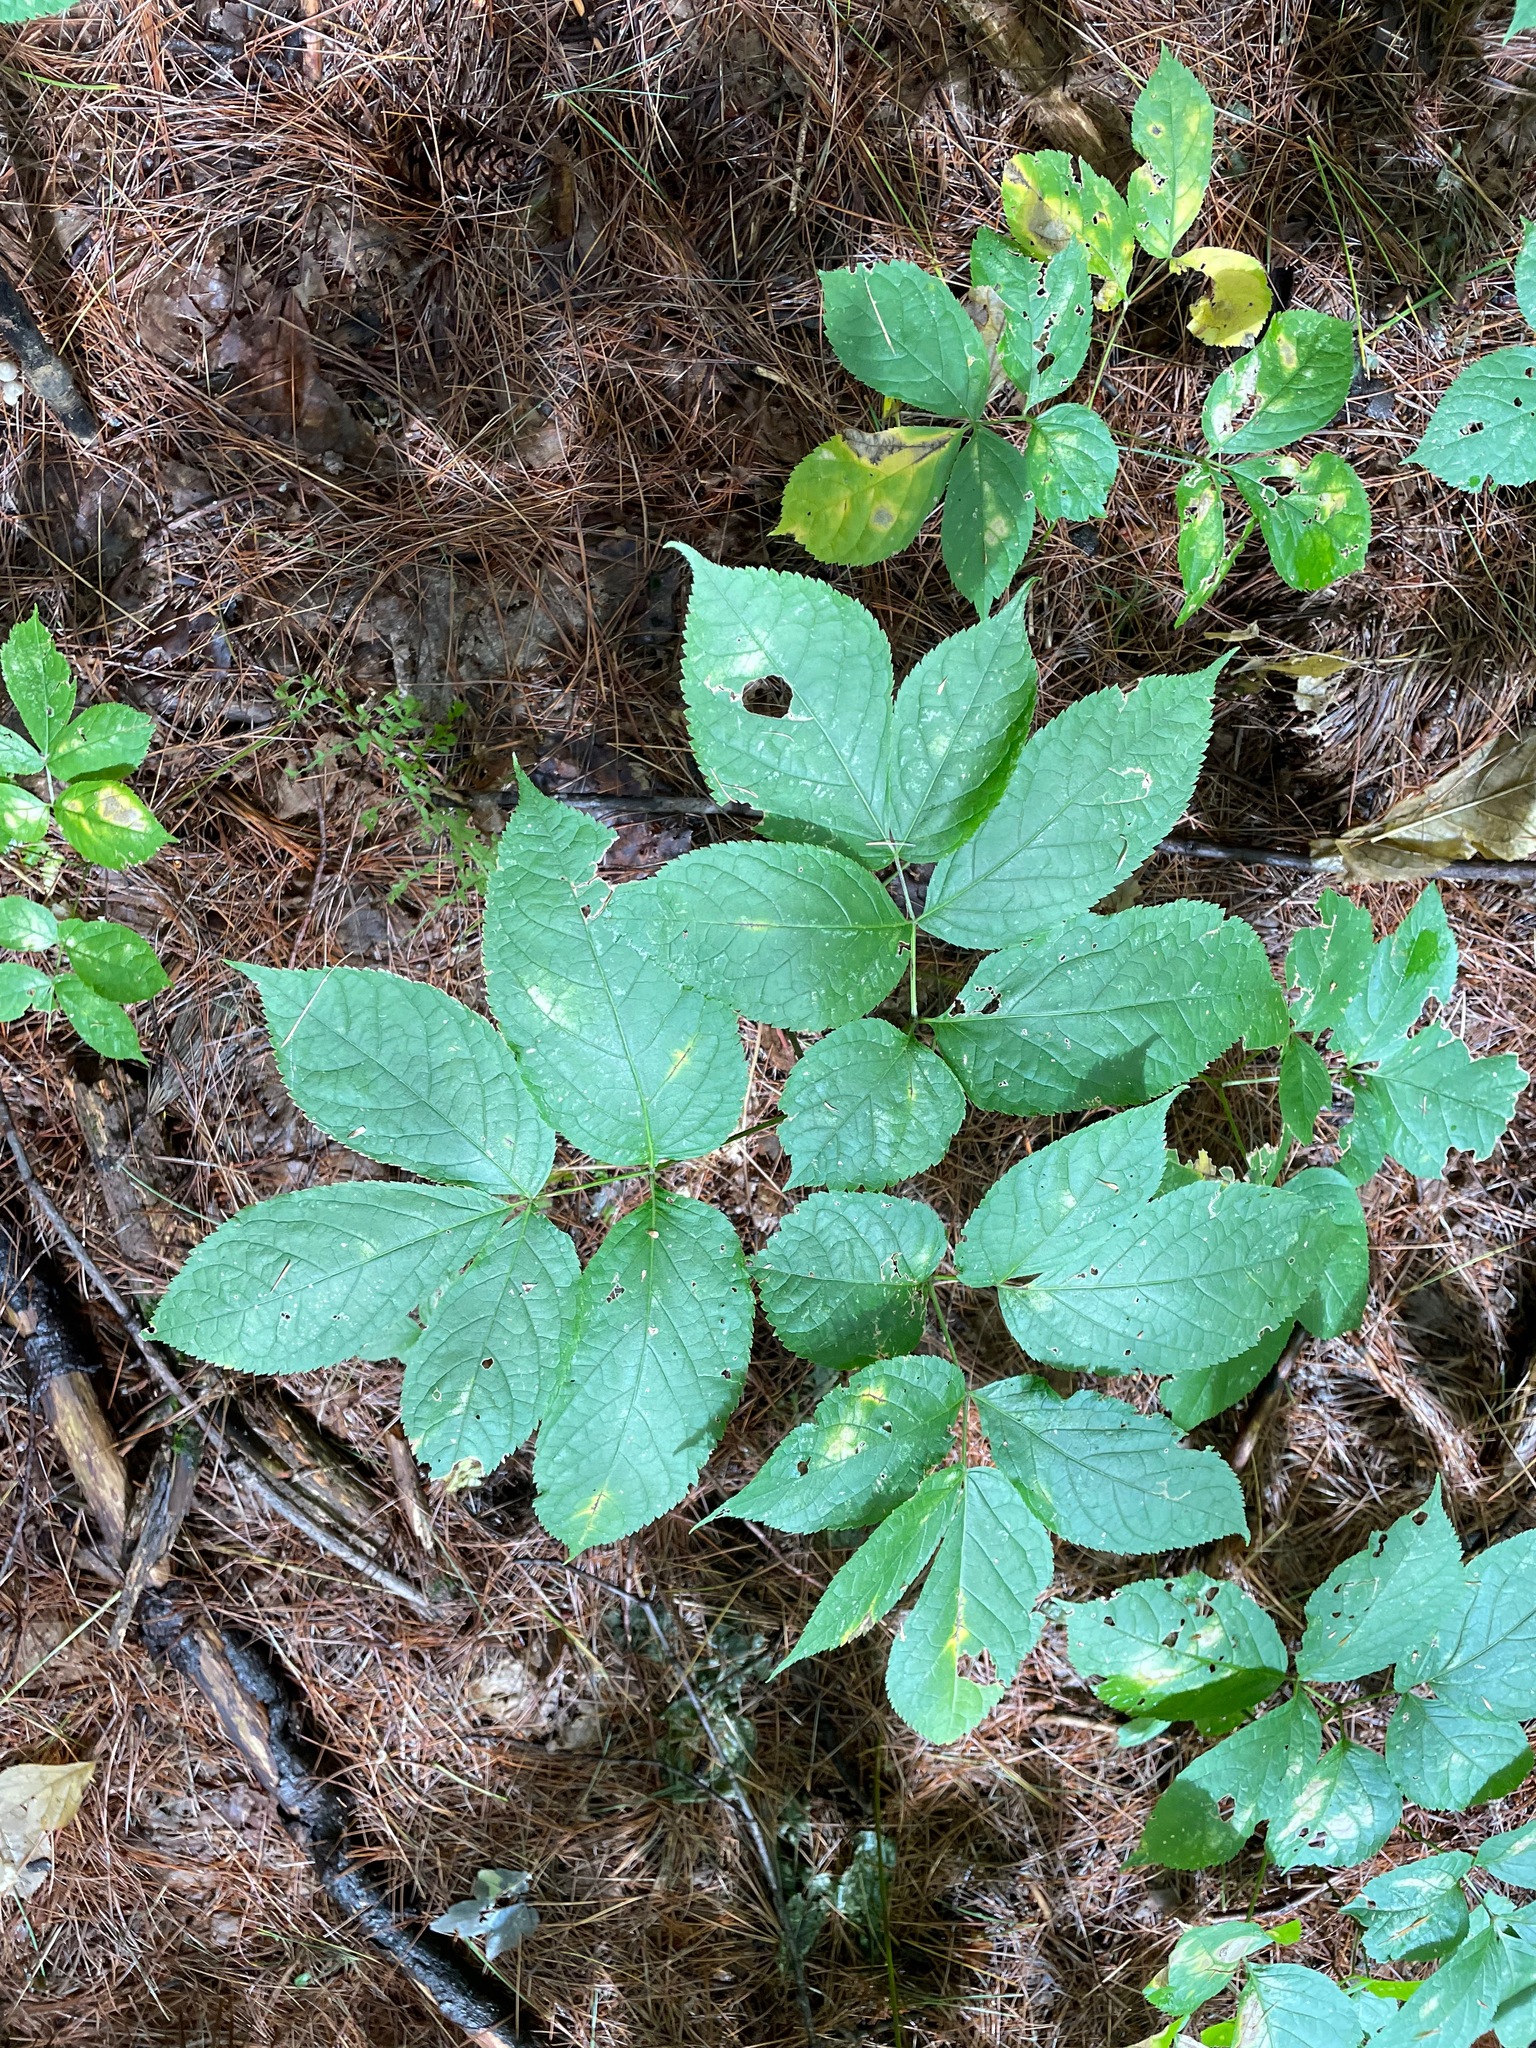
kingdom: Plantae
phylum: Tracheophyta
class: Magnoliopsida
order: Apiales
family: Araliaceae
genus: Aralia
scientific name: Aralia nudicaulis
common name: Wild sarsaparilla
